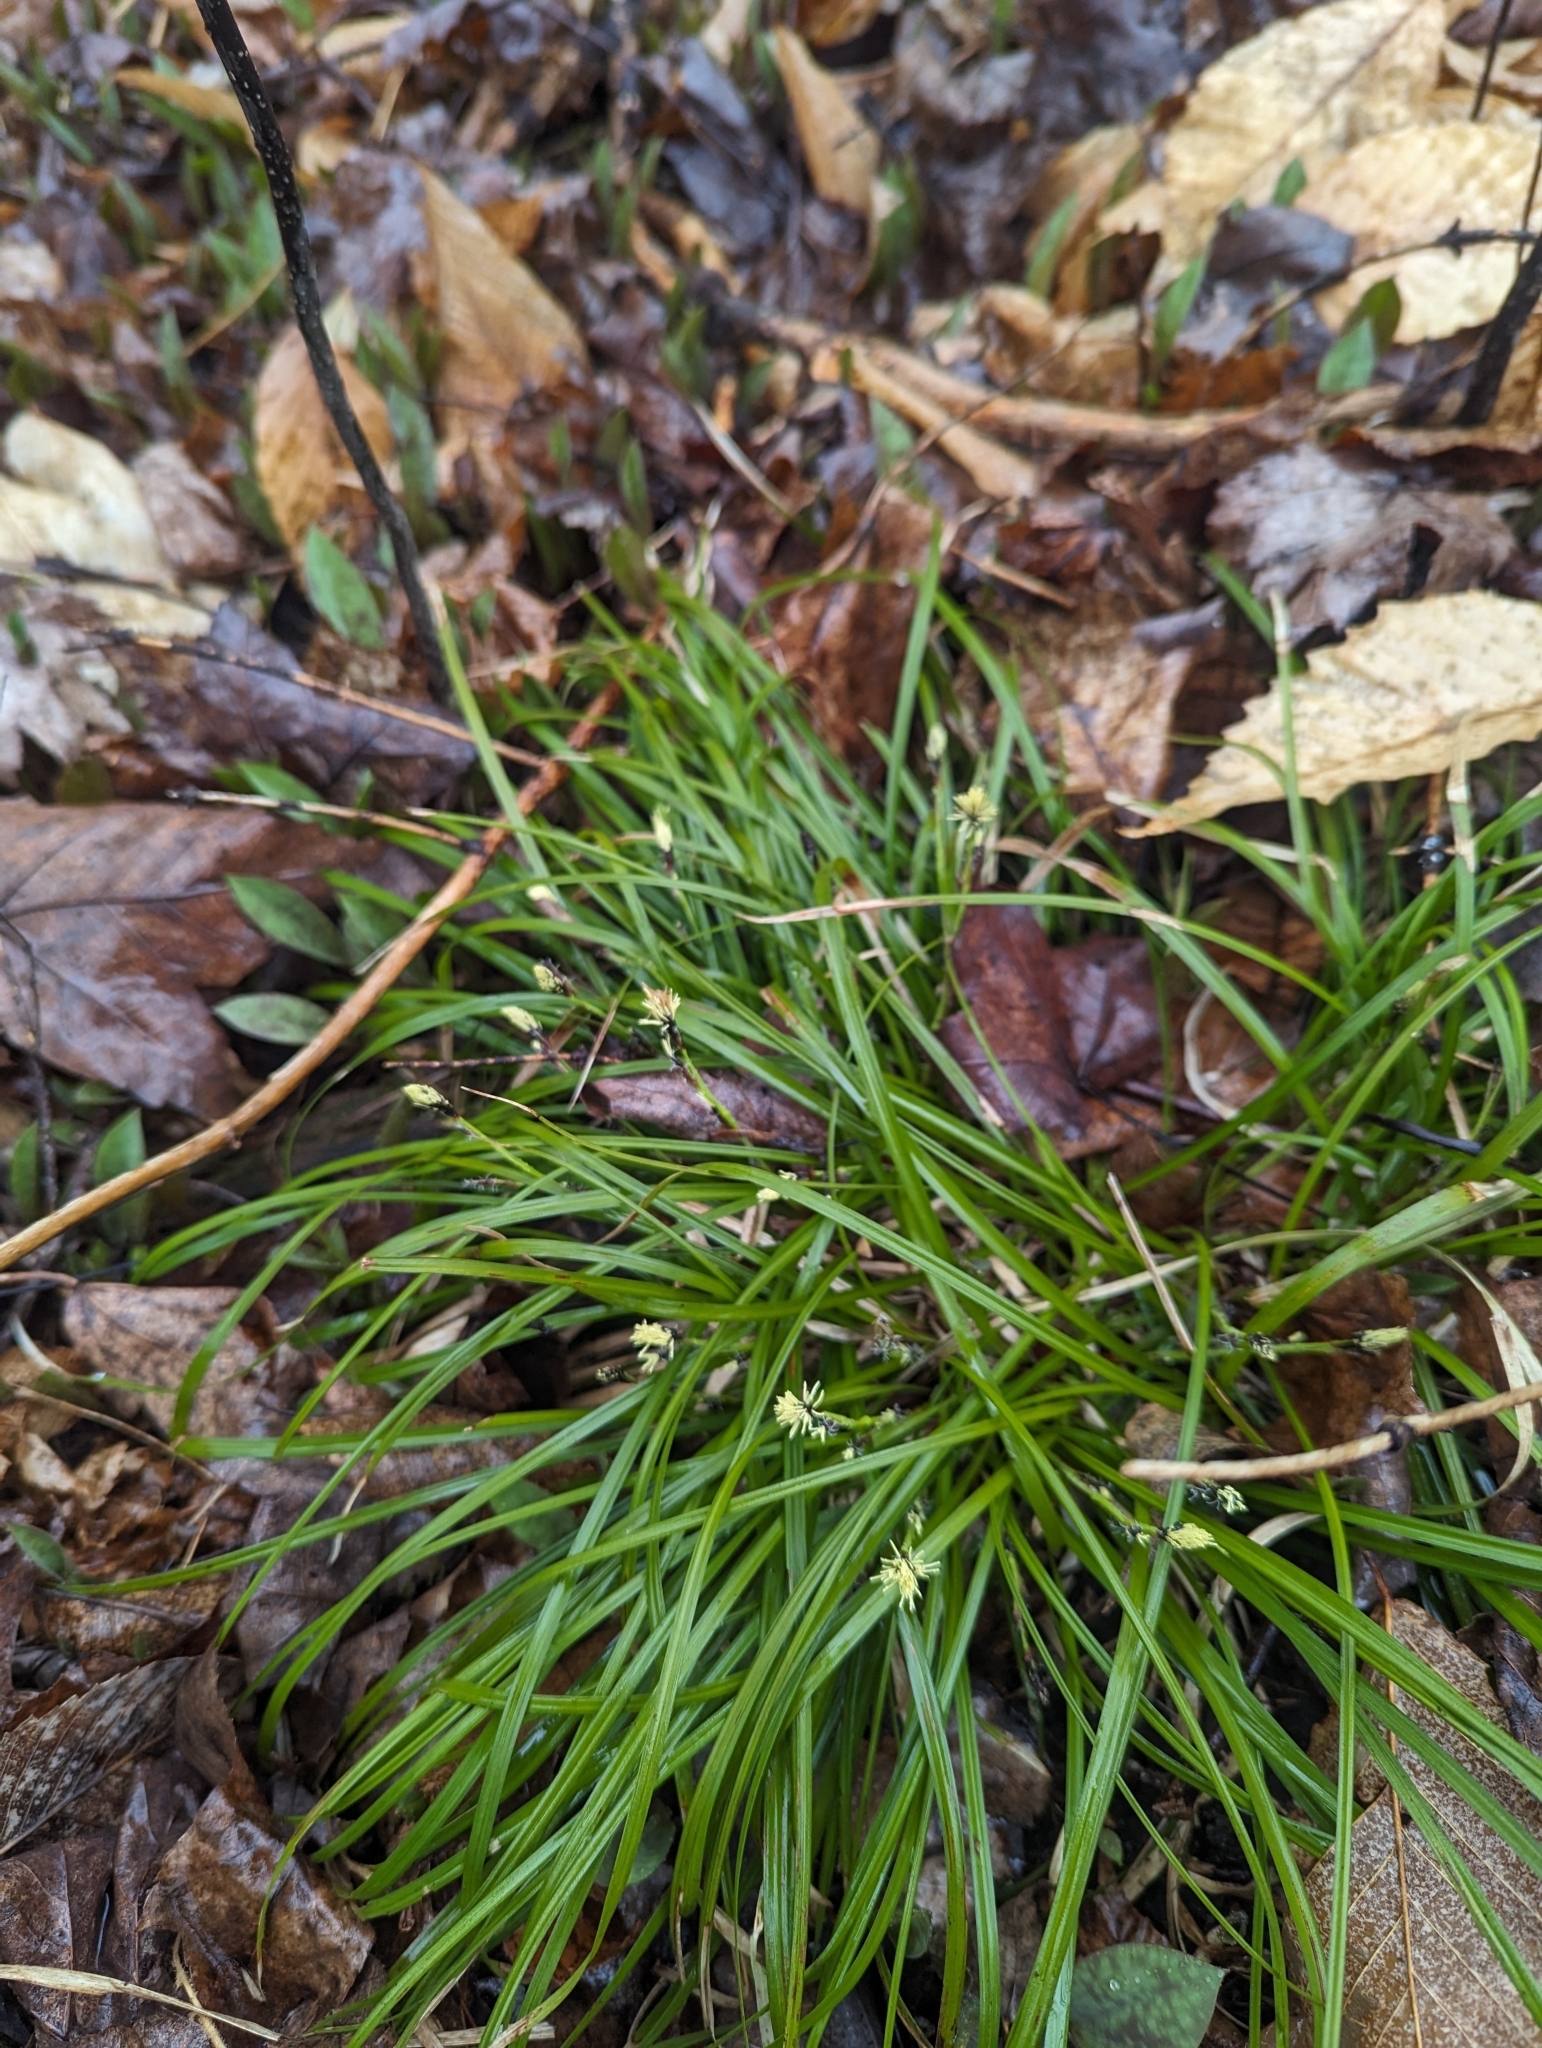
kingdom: Plantae
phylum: Tracheophyta
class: Liliopsida
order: Poales
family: Cyperaceae
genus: Carex
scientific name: Carex pedunculata
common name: Pedunculate sedge
